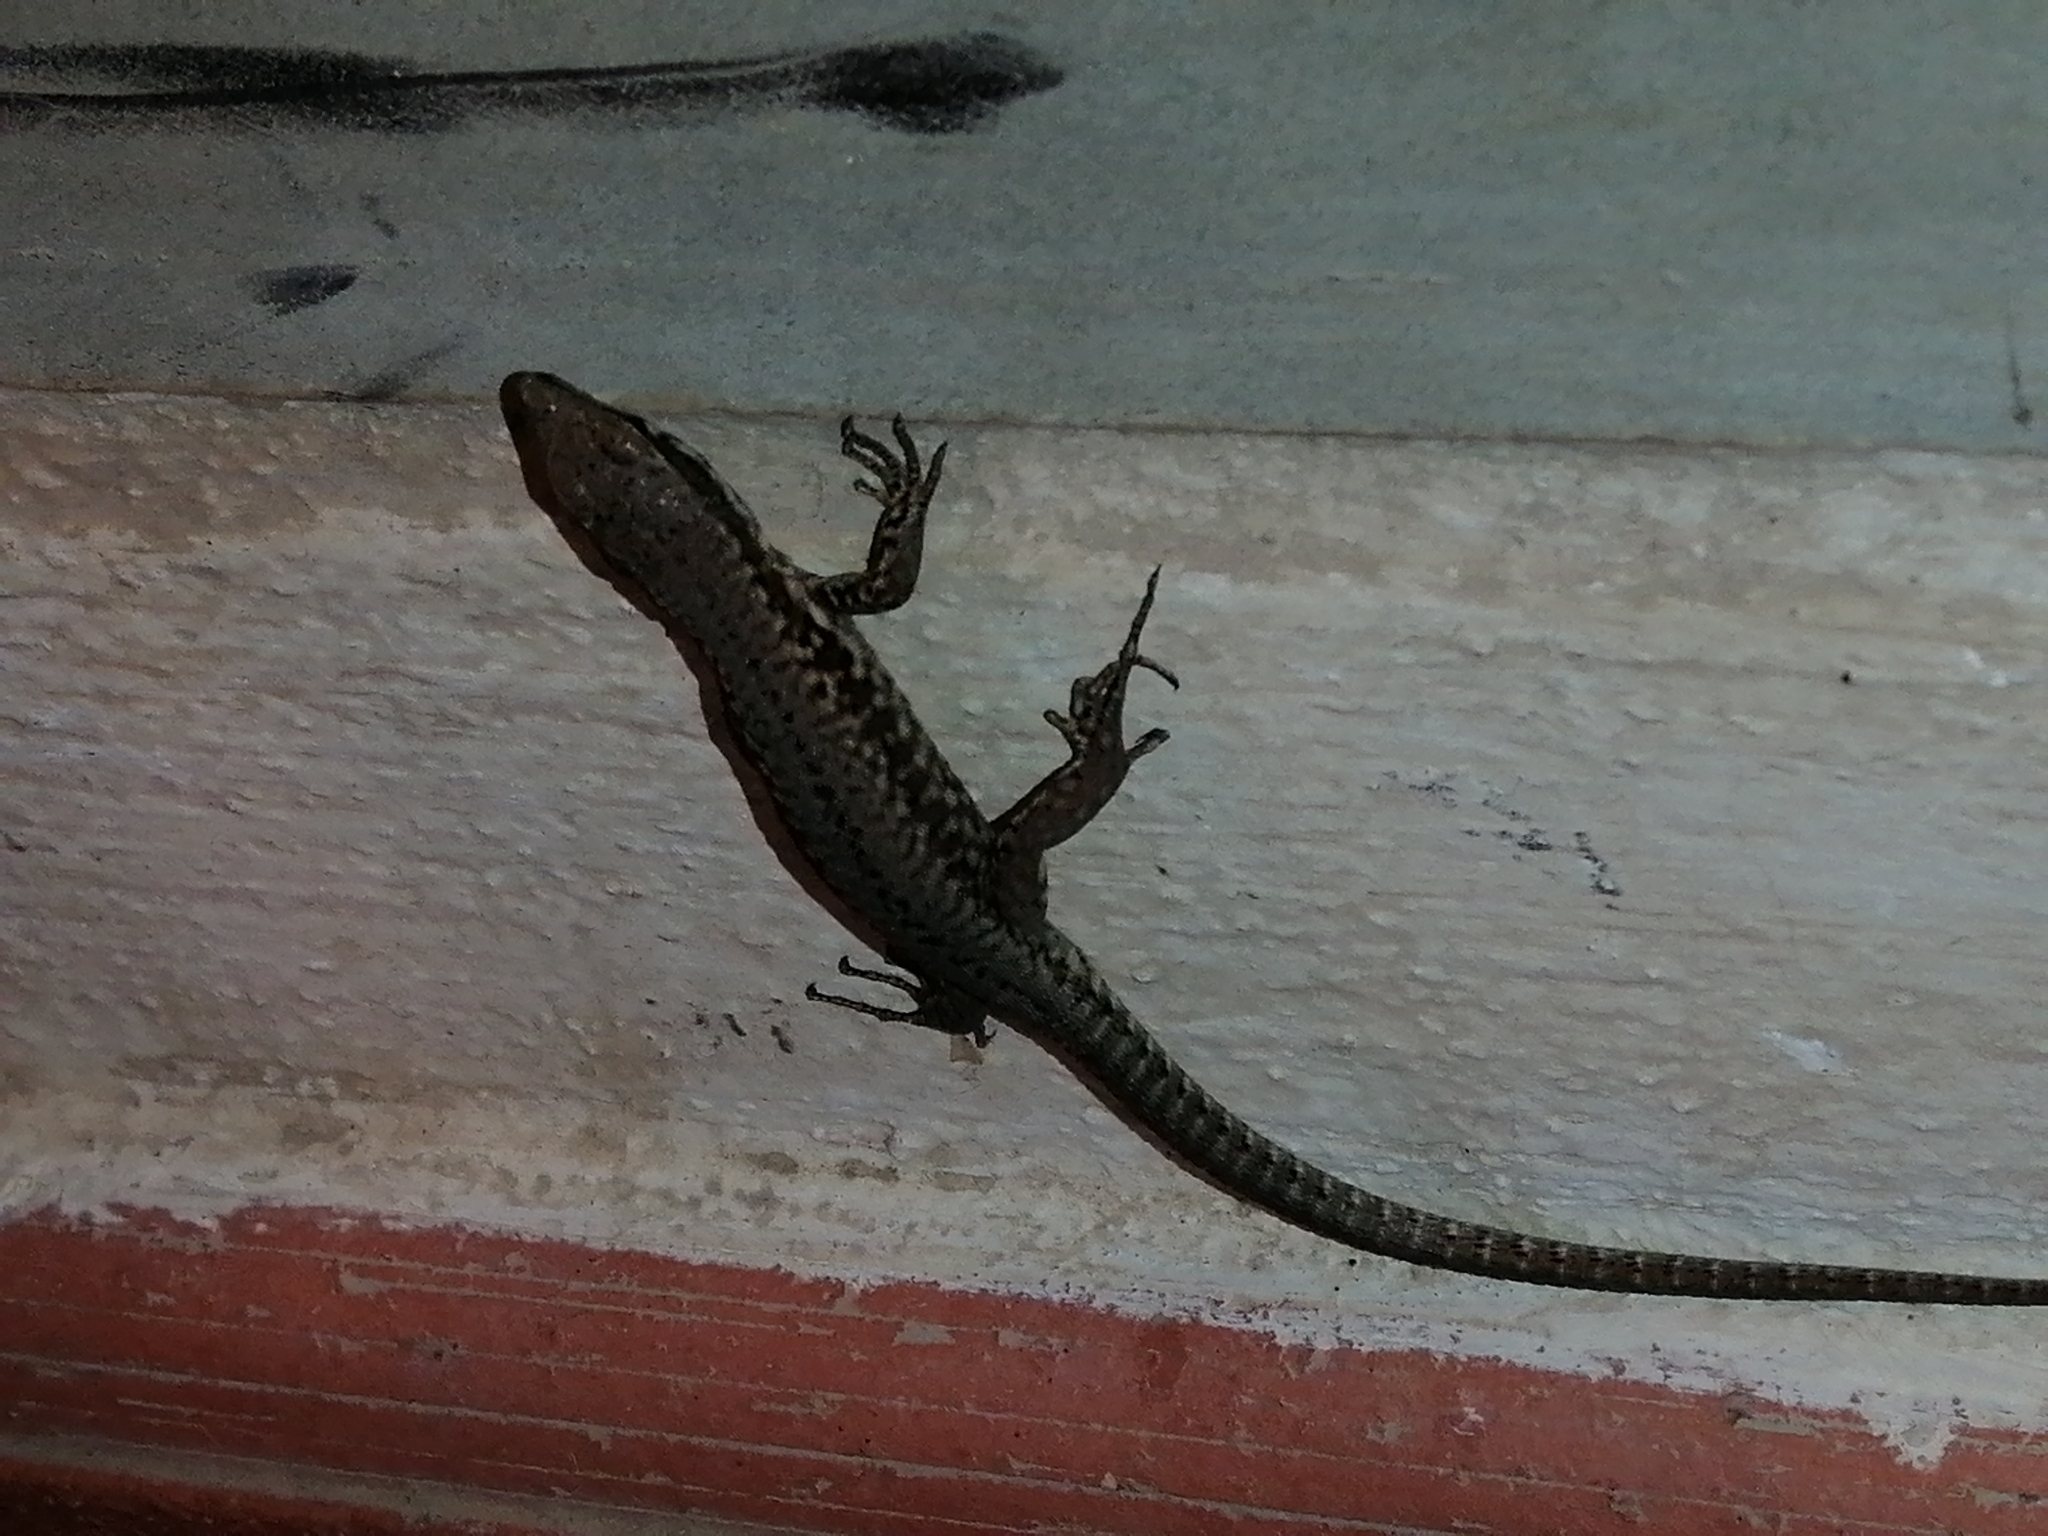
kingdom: Animalia
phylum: Chordata
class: Squamata
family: Lacertidae
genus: Podarcis
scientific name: Podarcis muralis
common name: Common wall lizard
